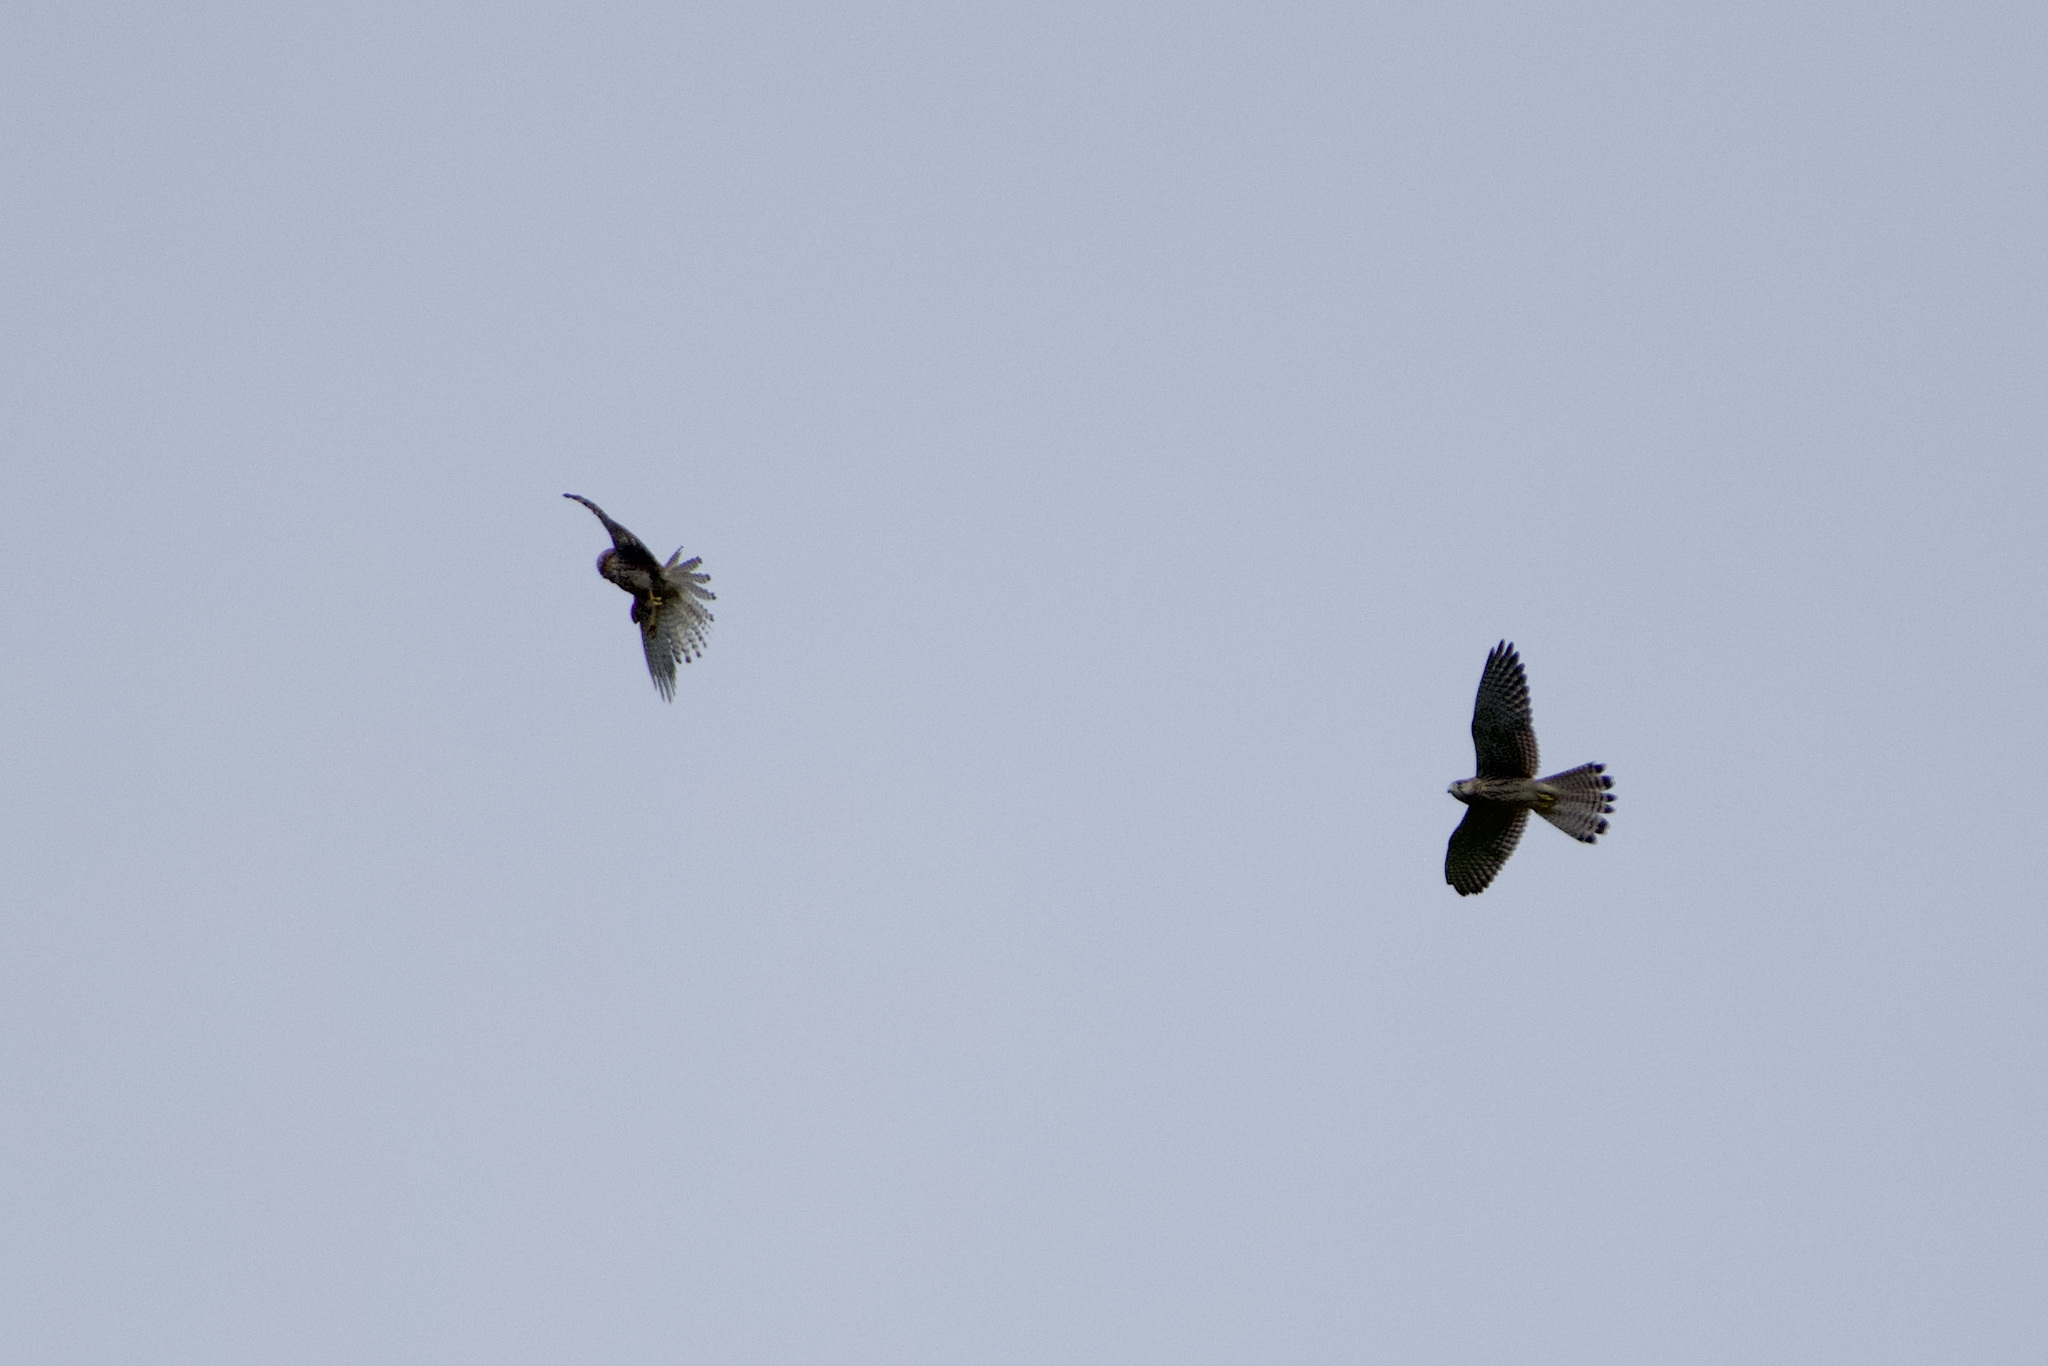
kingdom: Animalia
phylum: Chordata
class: Aves
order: Falconiformes
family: Falconidae
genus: Falco
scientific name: Falco tinnunculus
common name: Common kestrel
